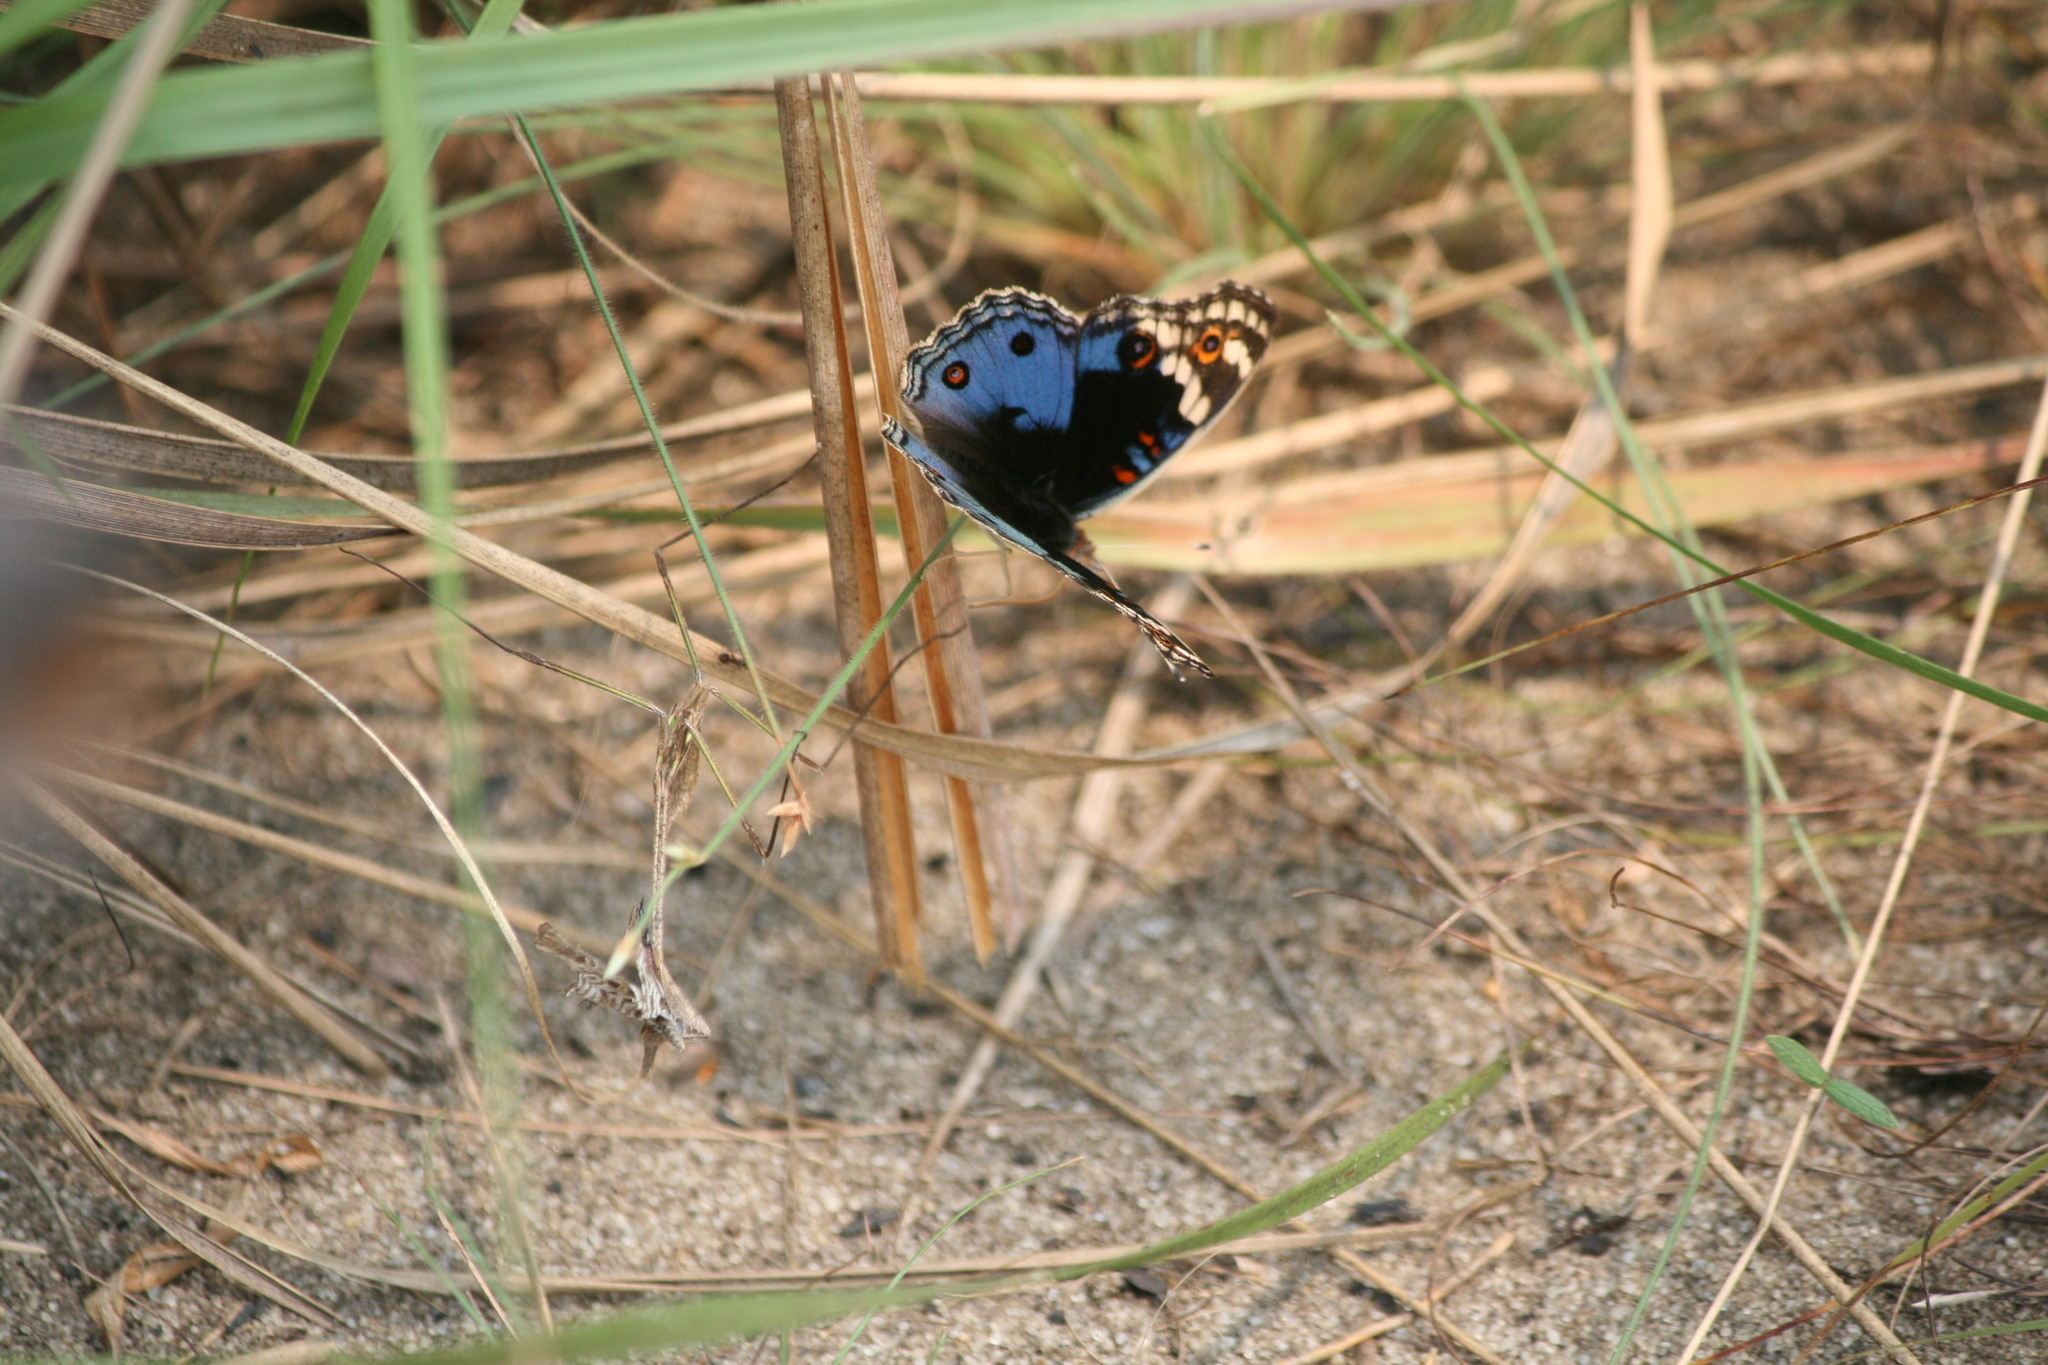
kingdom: Animalia
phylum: Arthropoda
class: Insecta
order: Lepidoptera
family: Nymphalidae
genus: Junonia
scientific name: Junonia orithya
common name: Blue pansy
